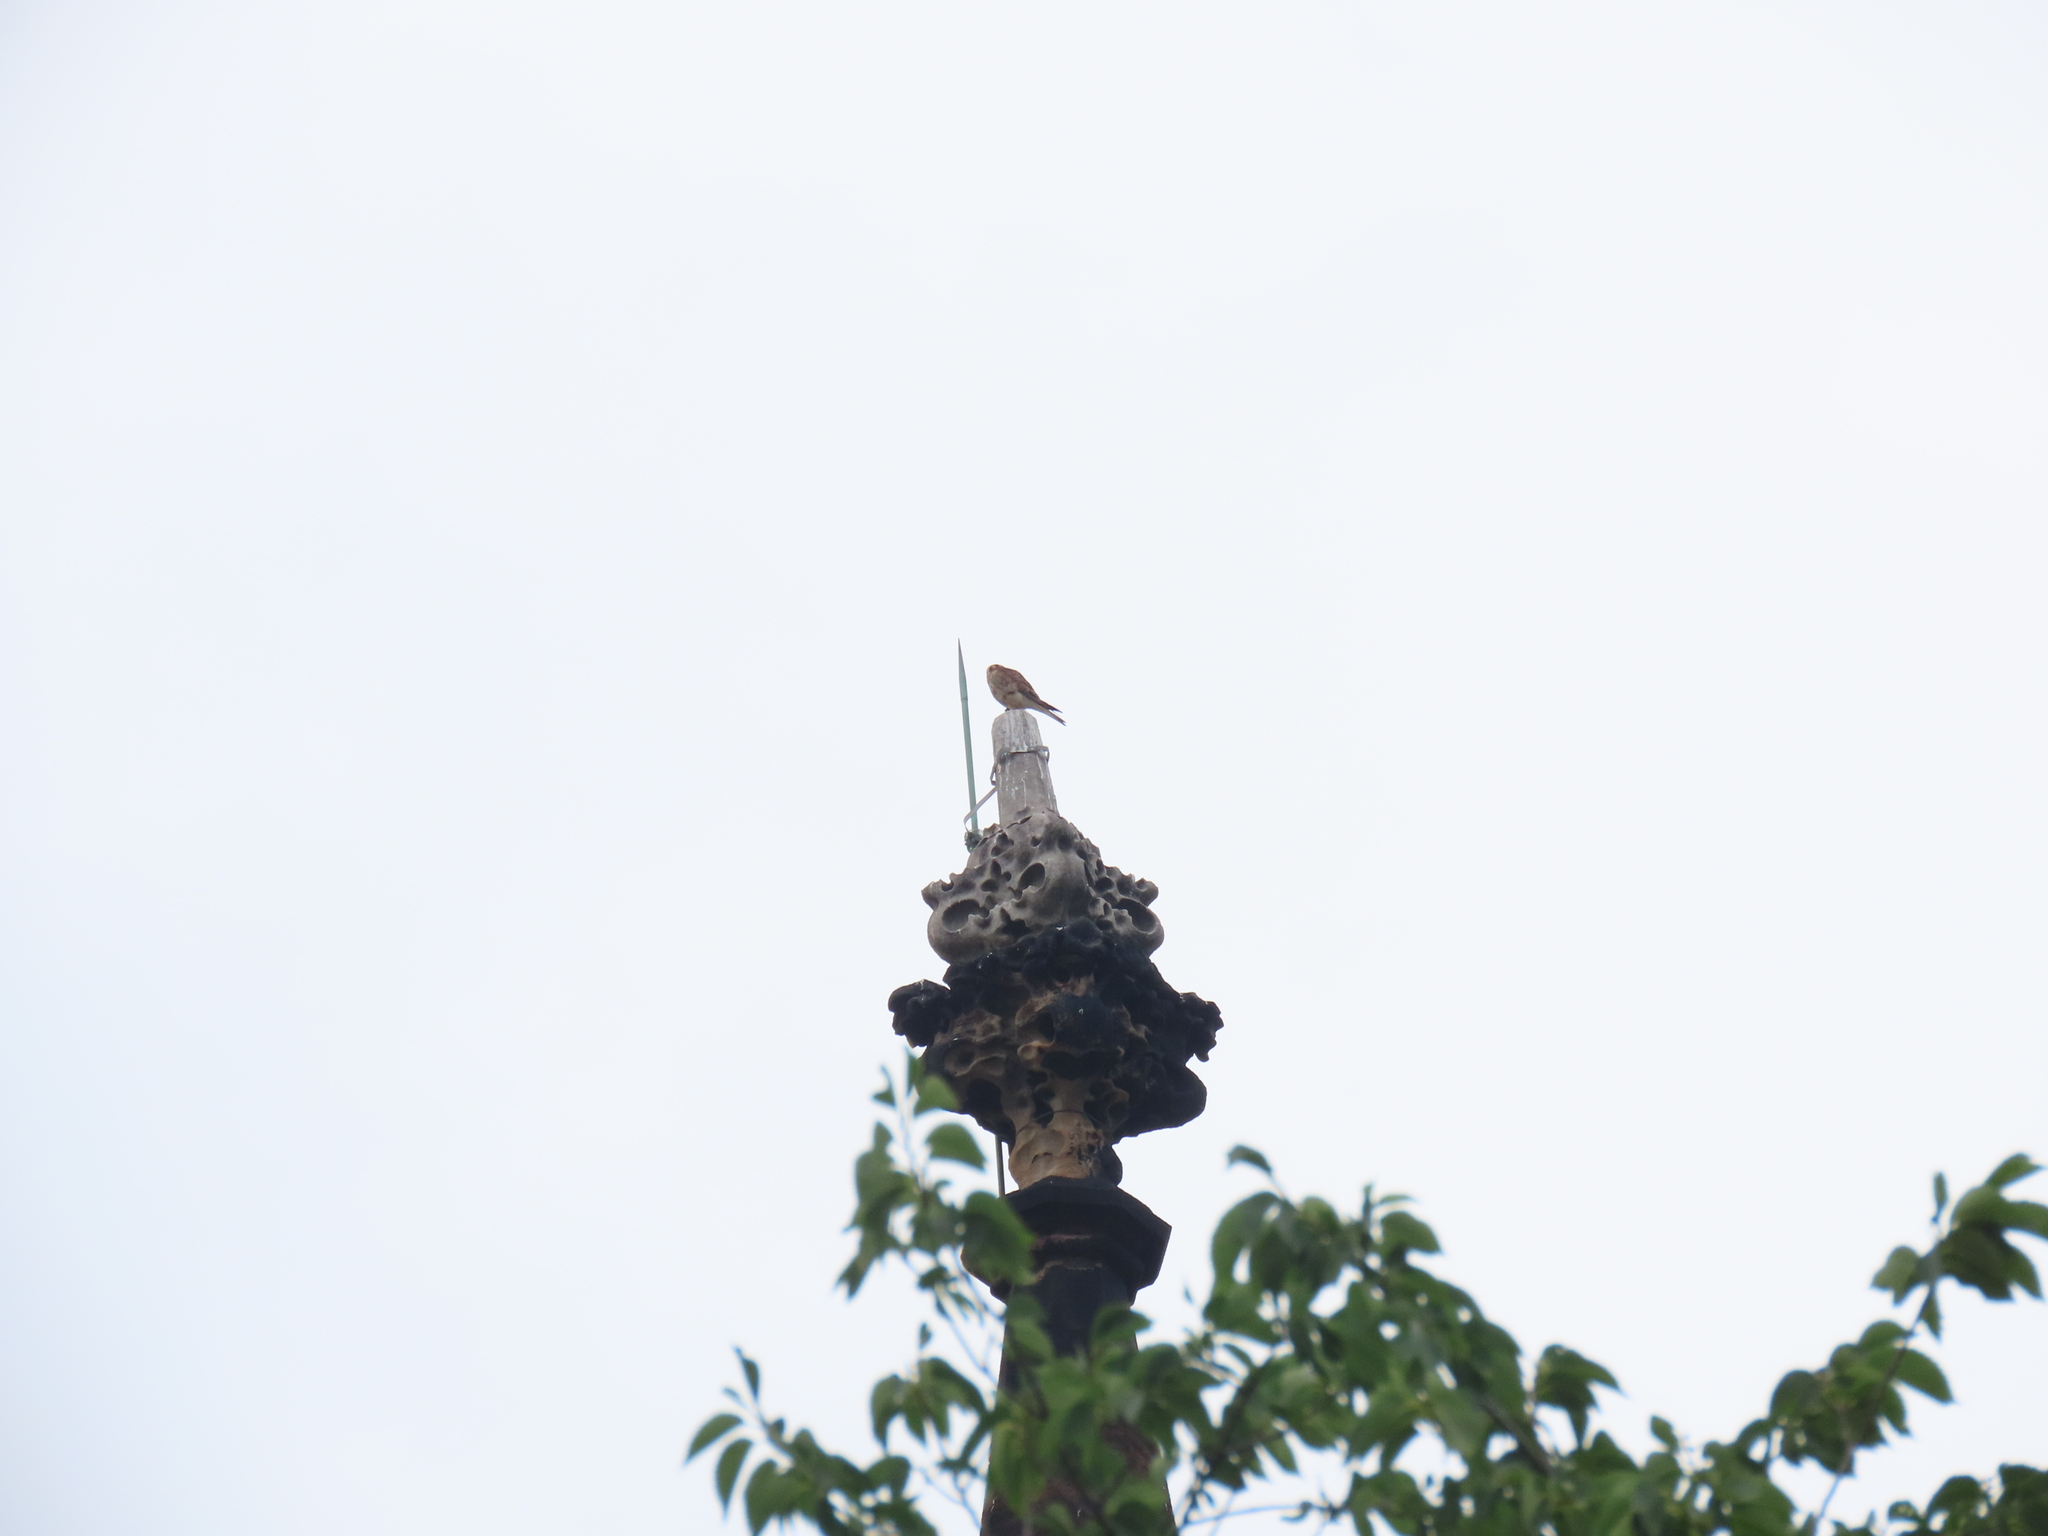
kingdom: Animalia
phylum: Chordata
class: Aves
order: Falconiformes
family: Falconidae
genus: Falco
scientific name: Falco sparverius
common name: American kestrel
